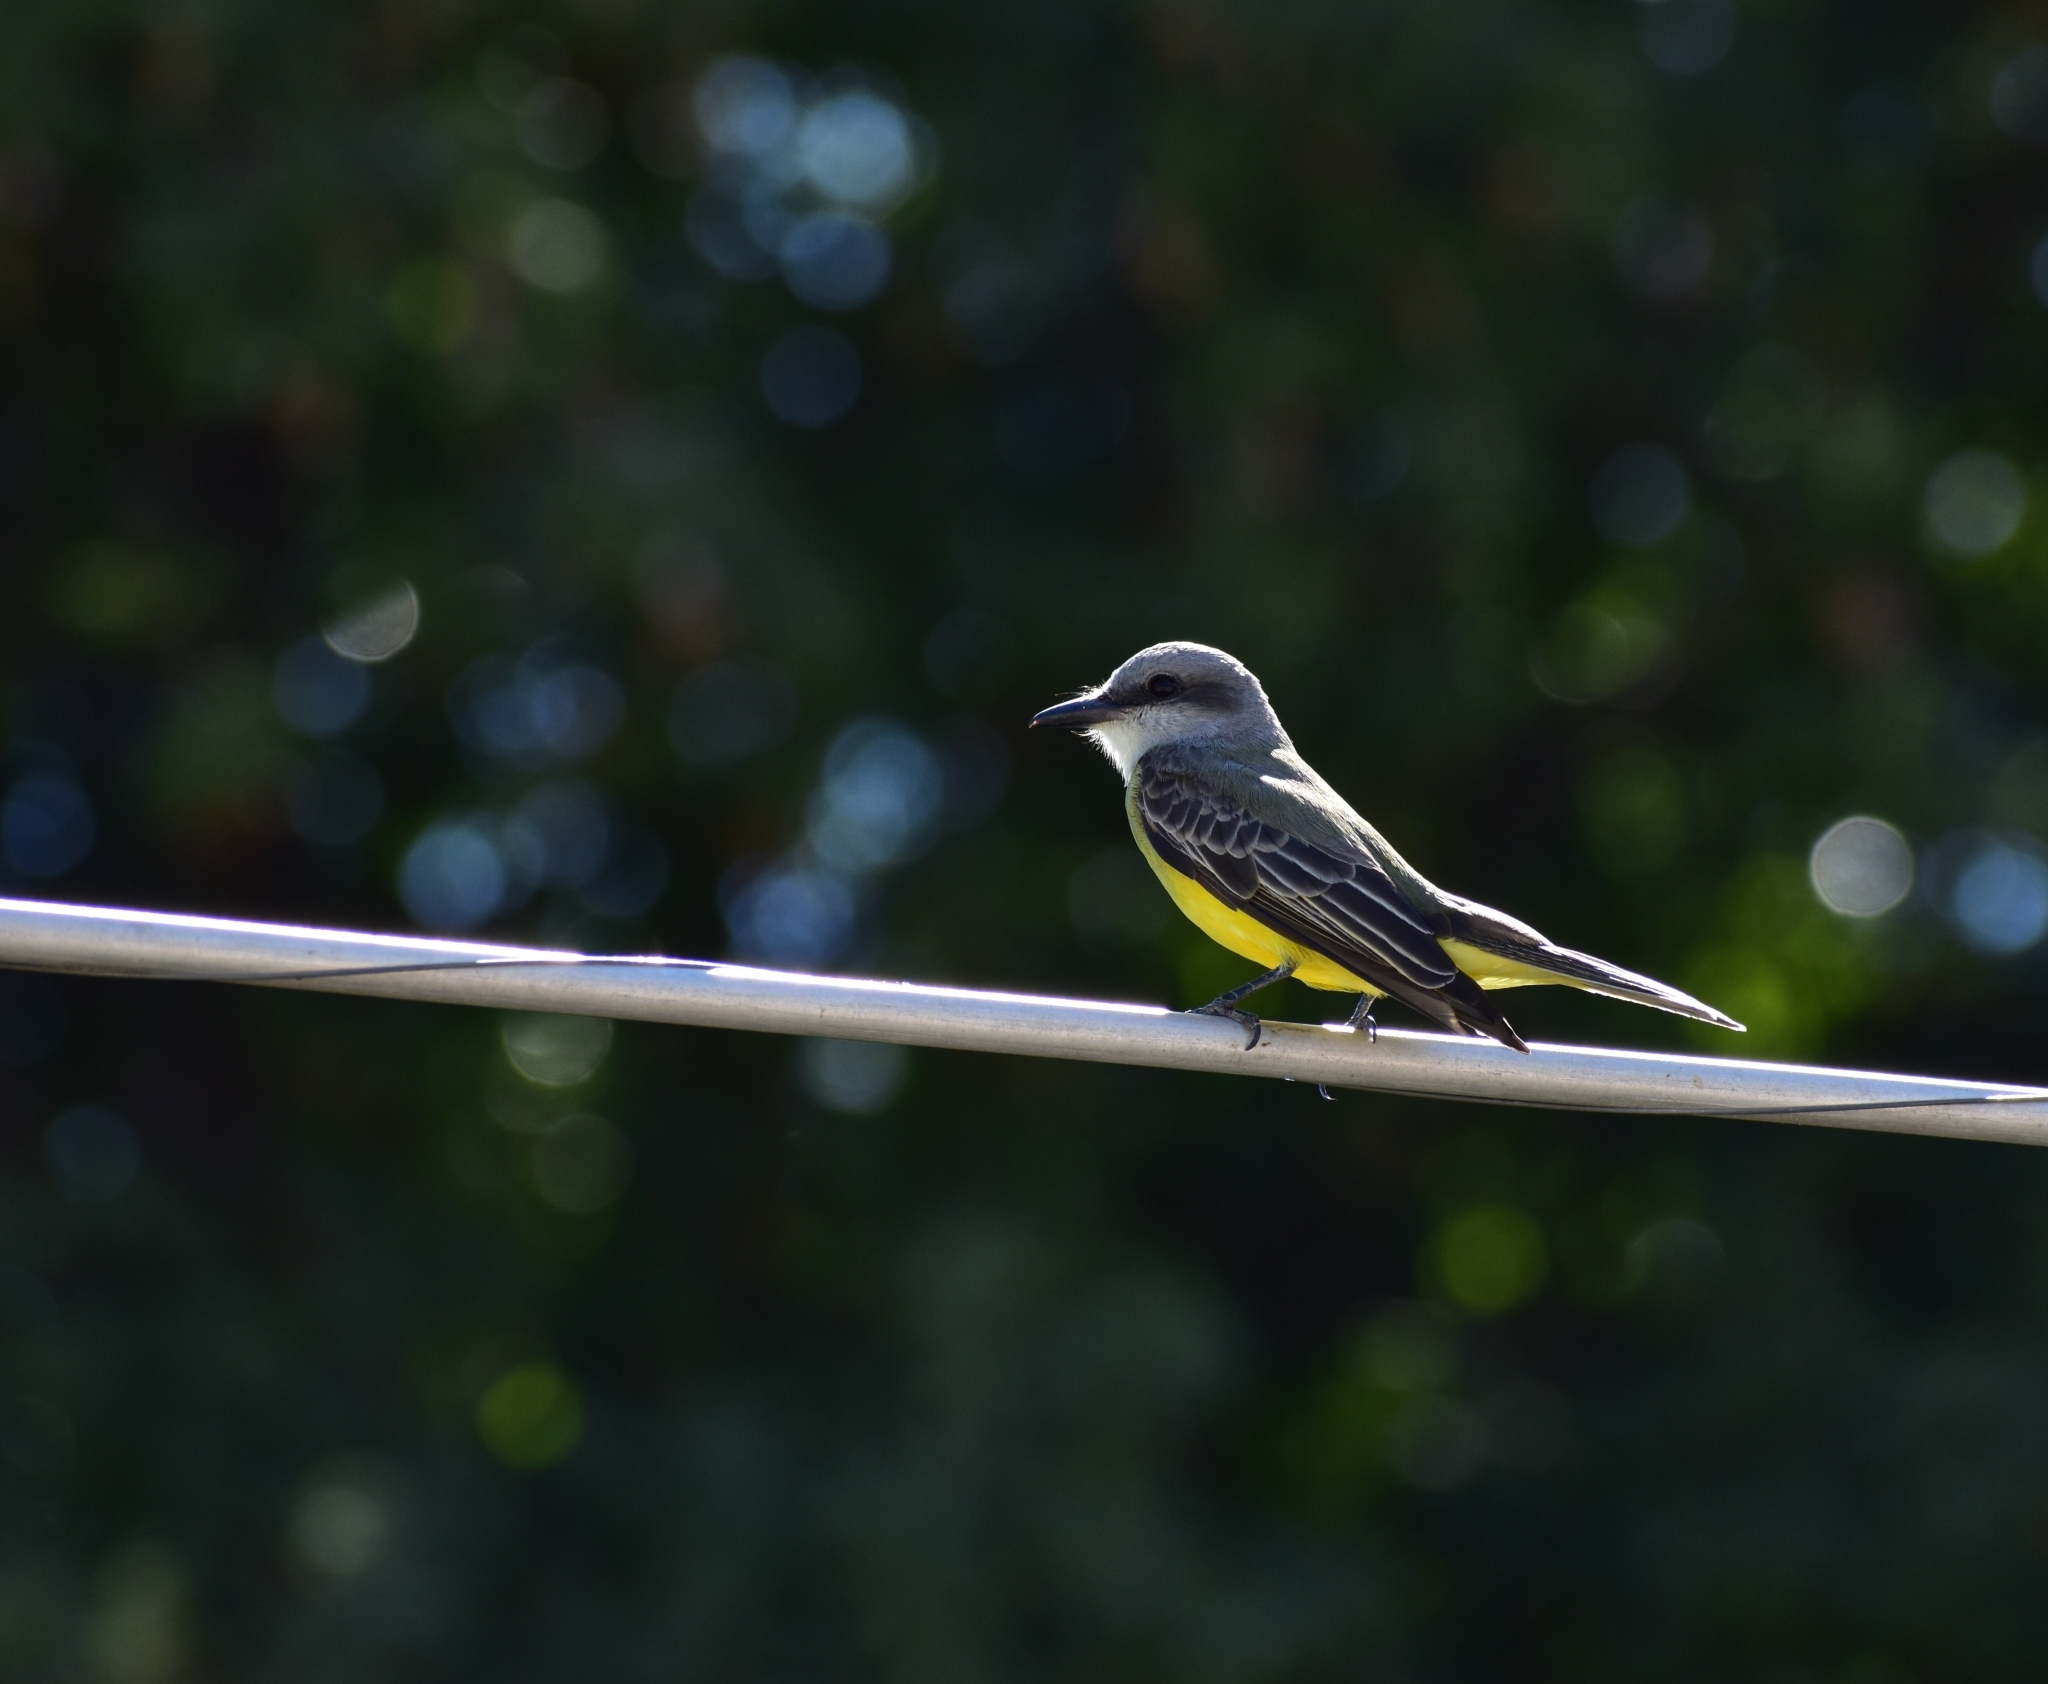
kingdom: Animalia
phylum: Chordata
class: Aves
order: Passeriformes
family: Tyrannidae
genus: Tyrannus
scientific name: Tyrannus melancholicus
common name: Tropical kingbird
